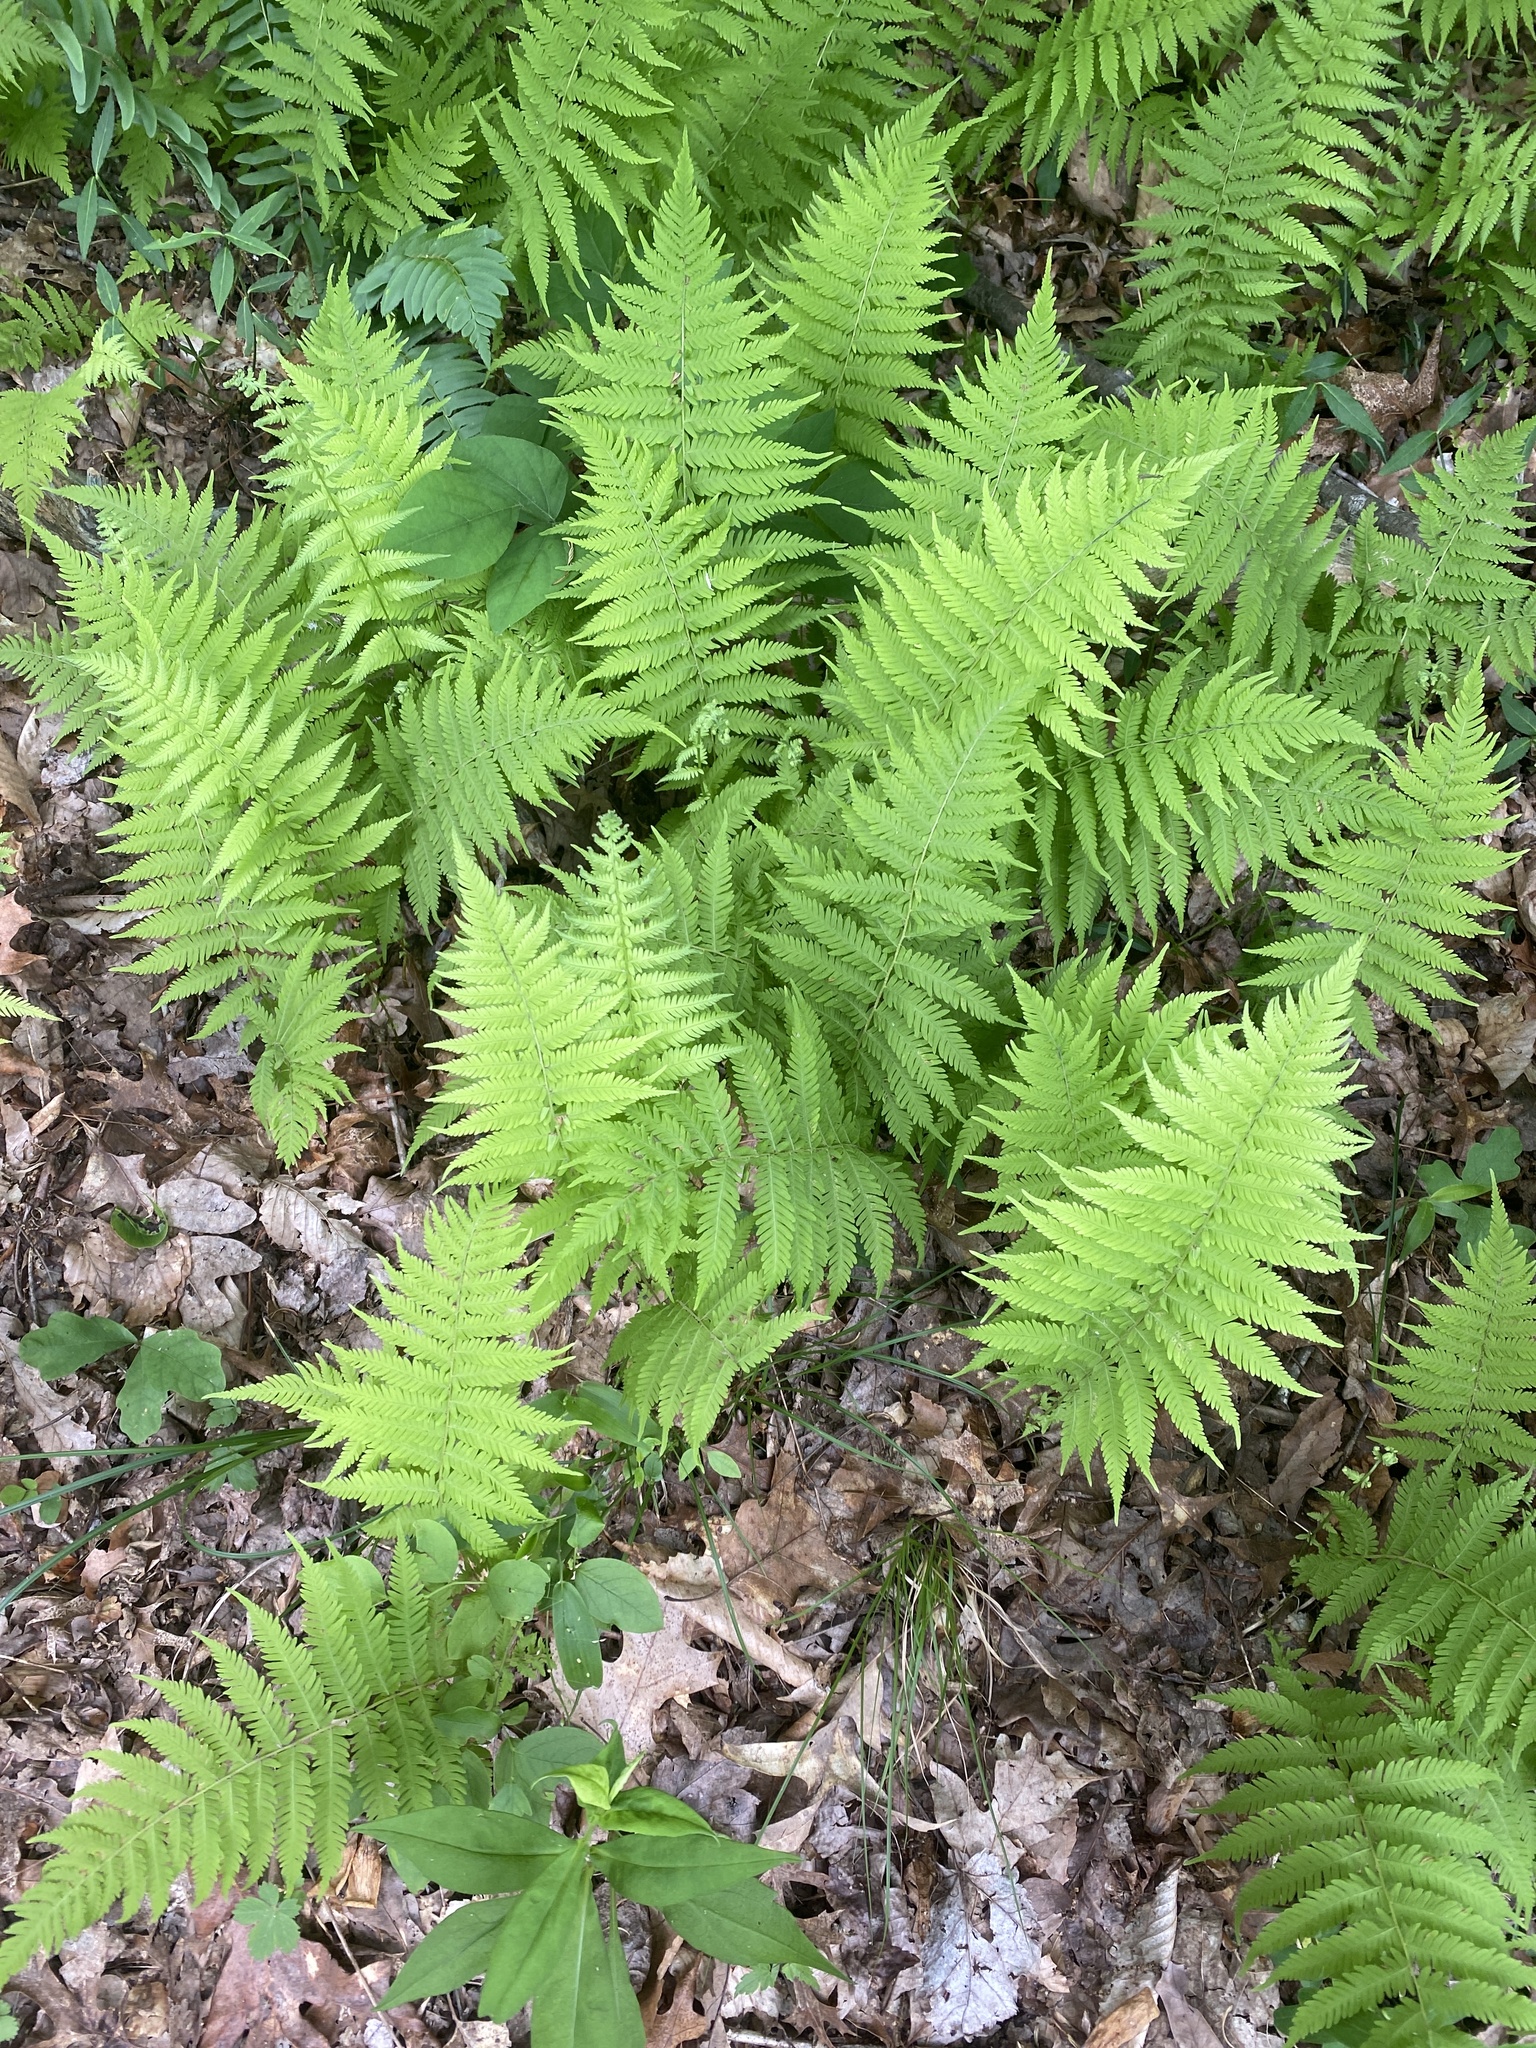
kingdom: Plantae
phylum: Tracheophyta
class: Polypodiopsida
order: Polypodiales
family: Thelypteridaceae
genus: Amauropelta
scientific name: Amauropelta noveboracensis
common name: New york fern
